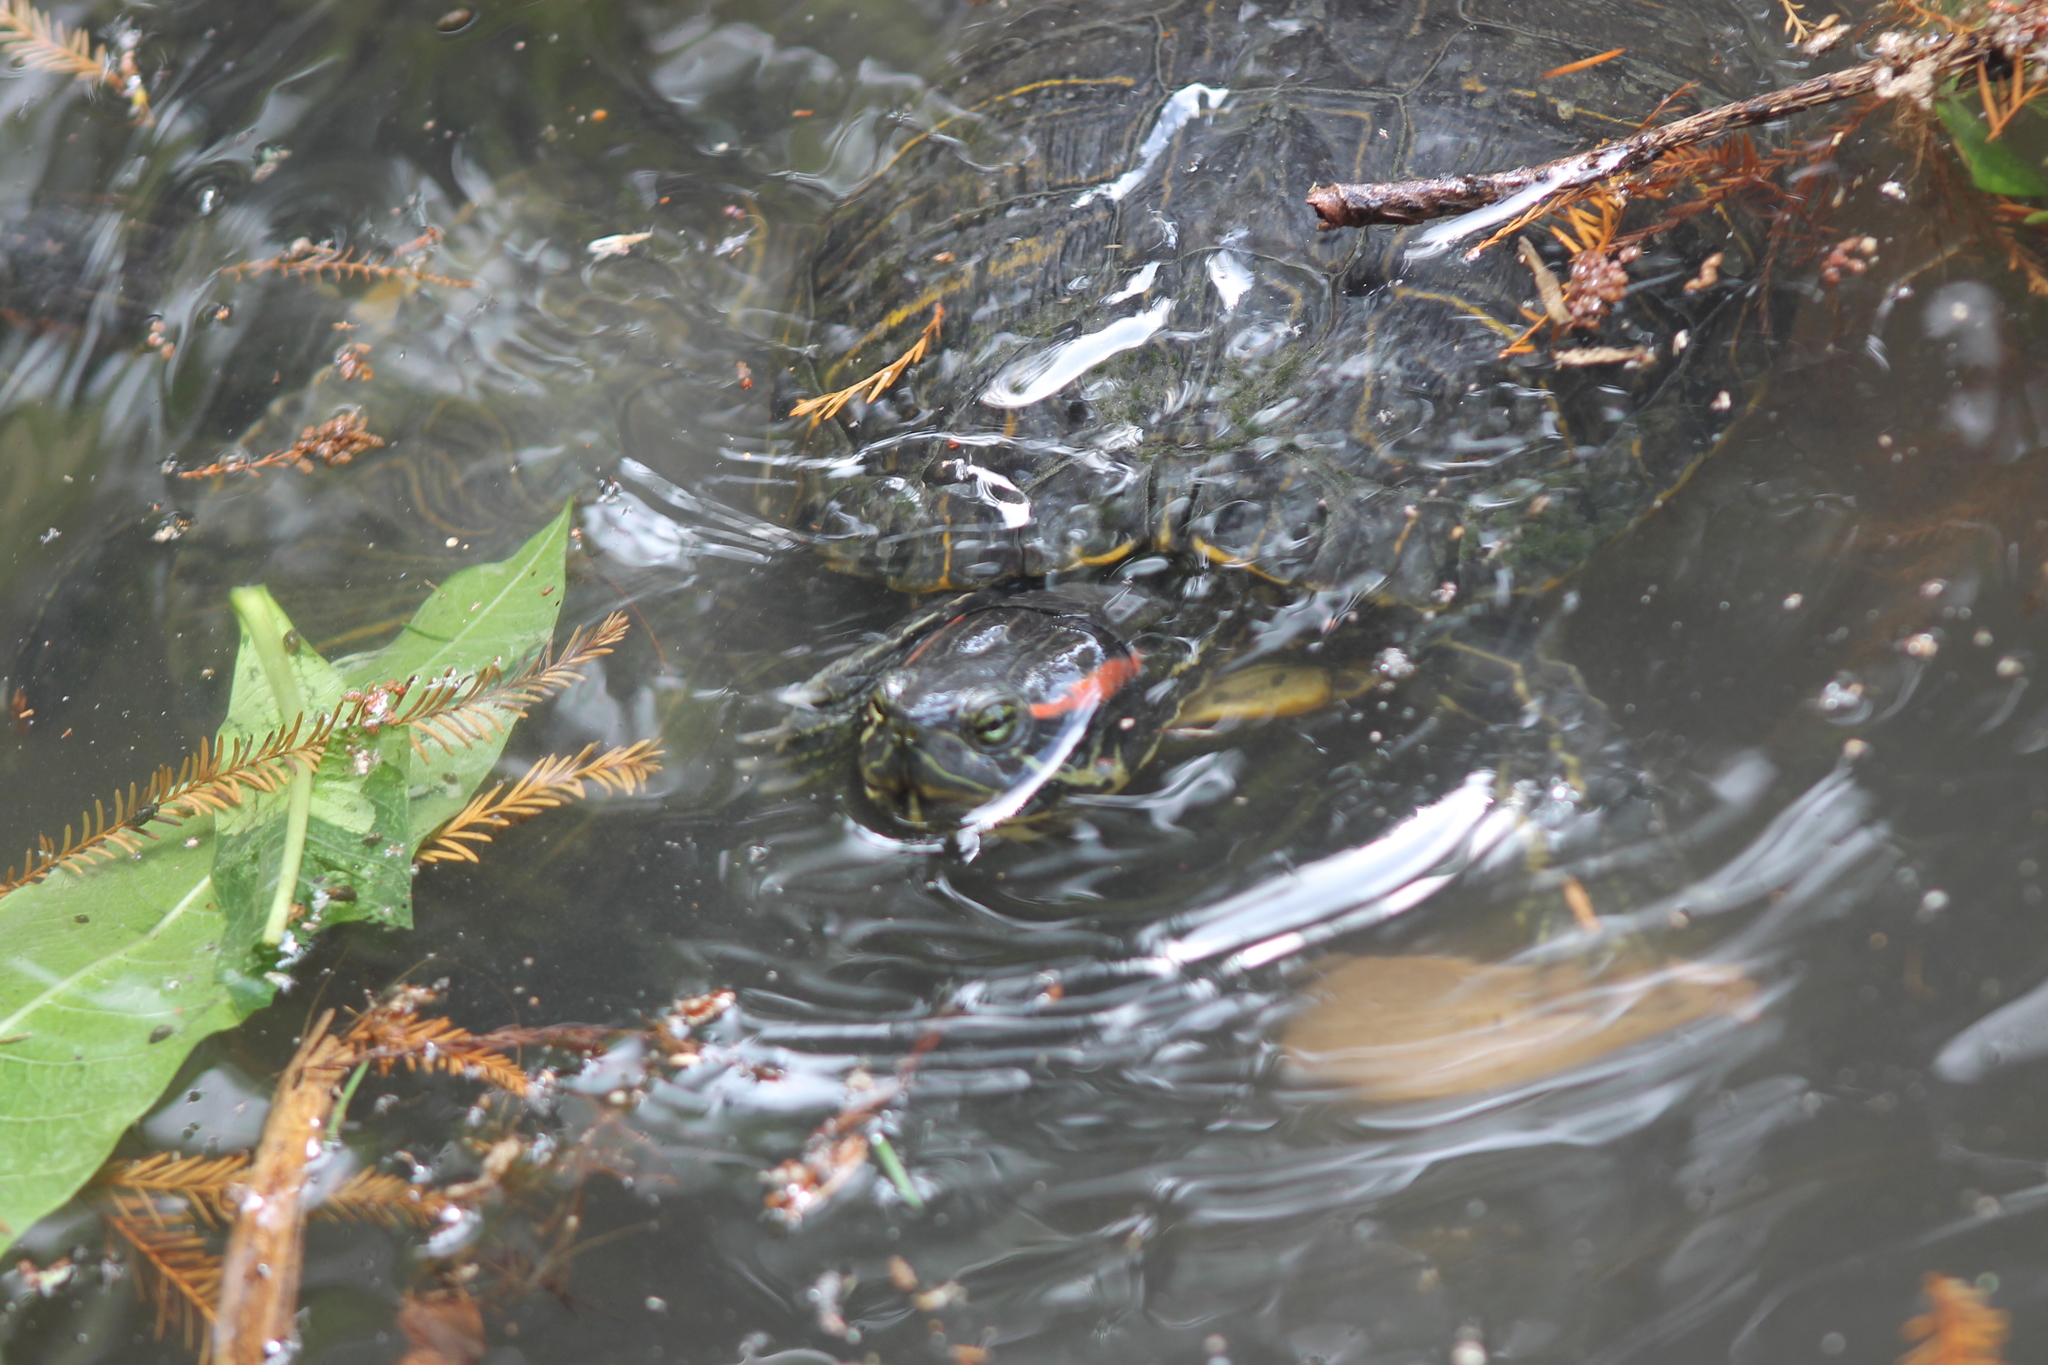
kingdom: Animalia
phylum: Chordata
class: Testudines
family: Emydidae
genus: Trachemys
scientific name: Trachemys scripta
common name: Slider
